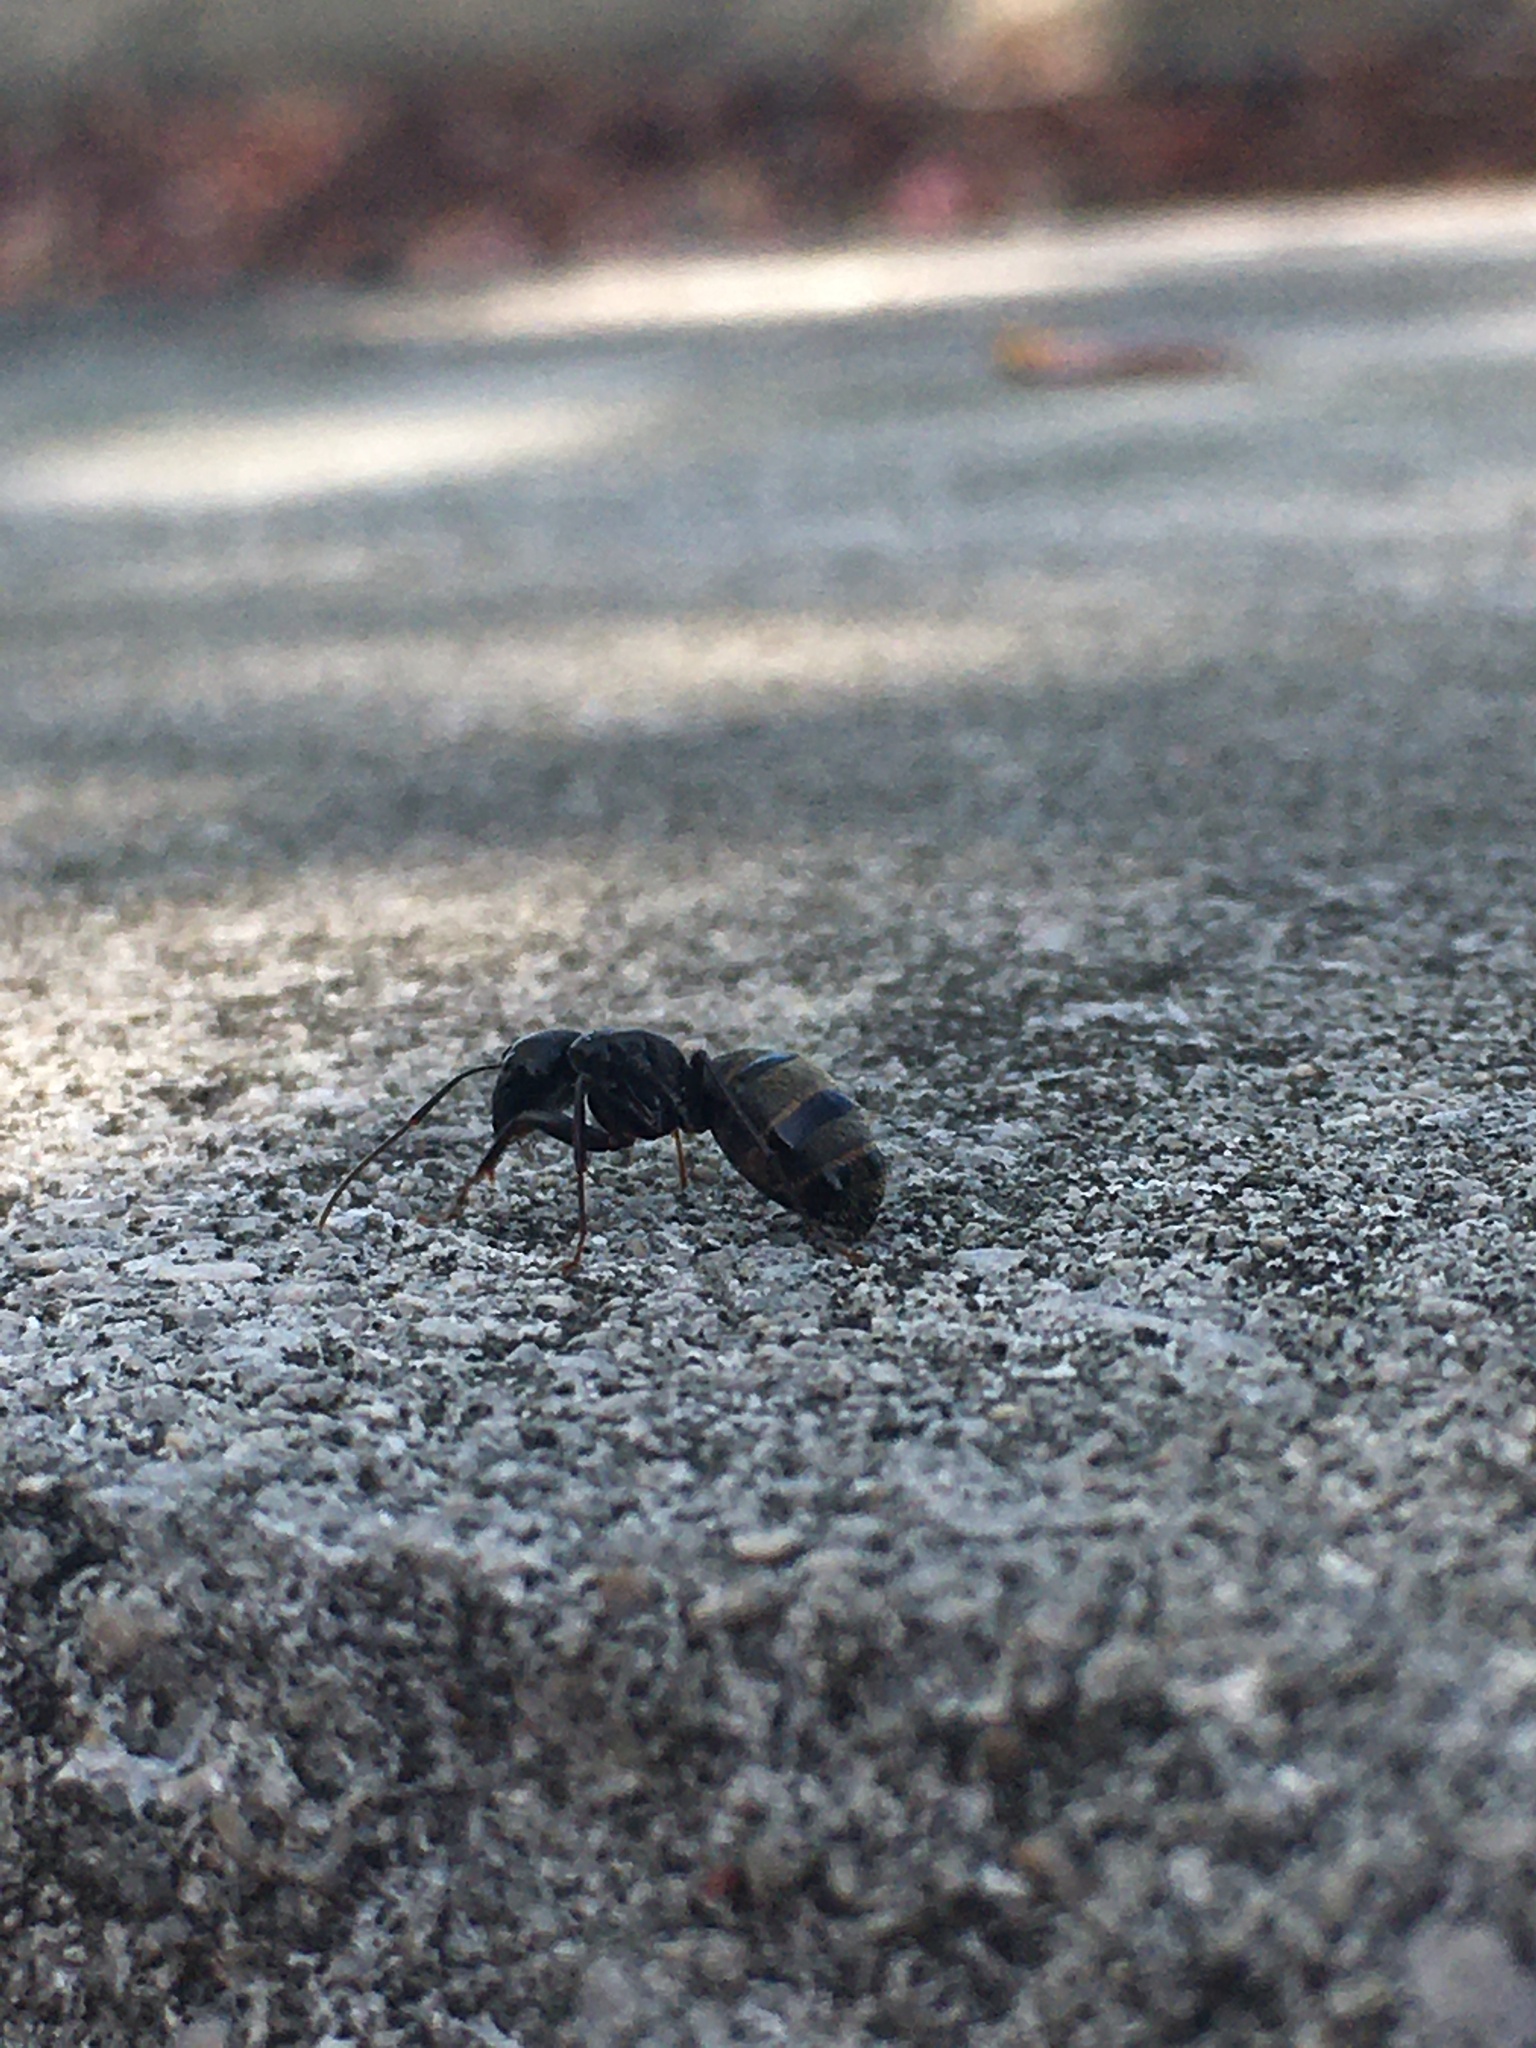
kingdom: Animalia
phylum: Arthropoda
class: Insecta
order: Hymenoptera
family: Formicidae
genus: Camponotus
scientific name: Camponotus pennsylvanicus
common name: Black carpenter ant
